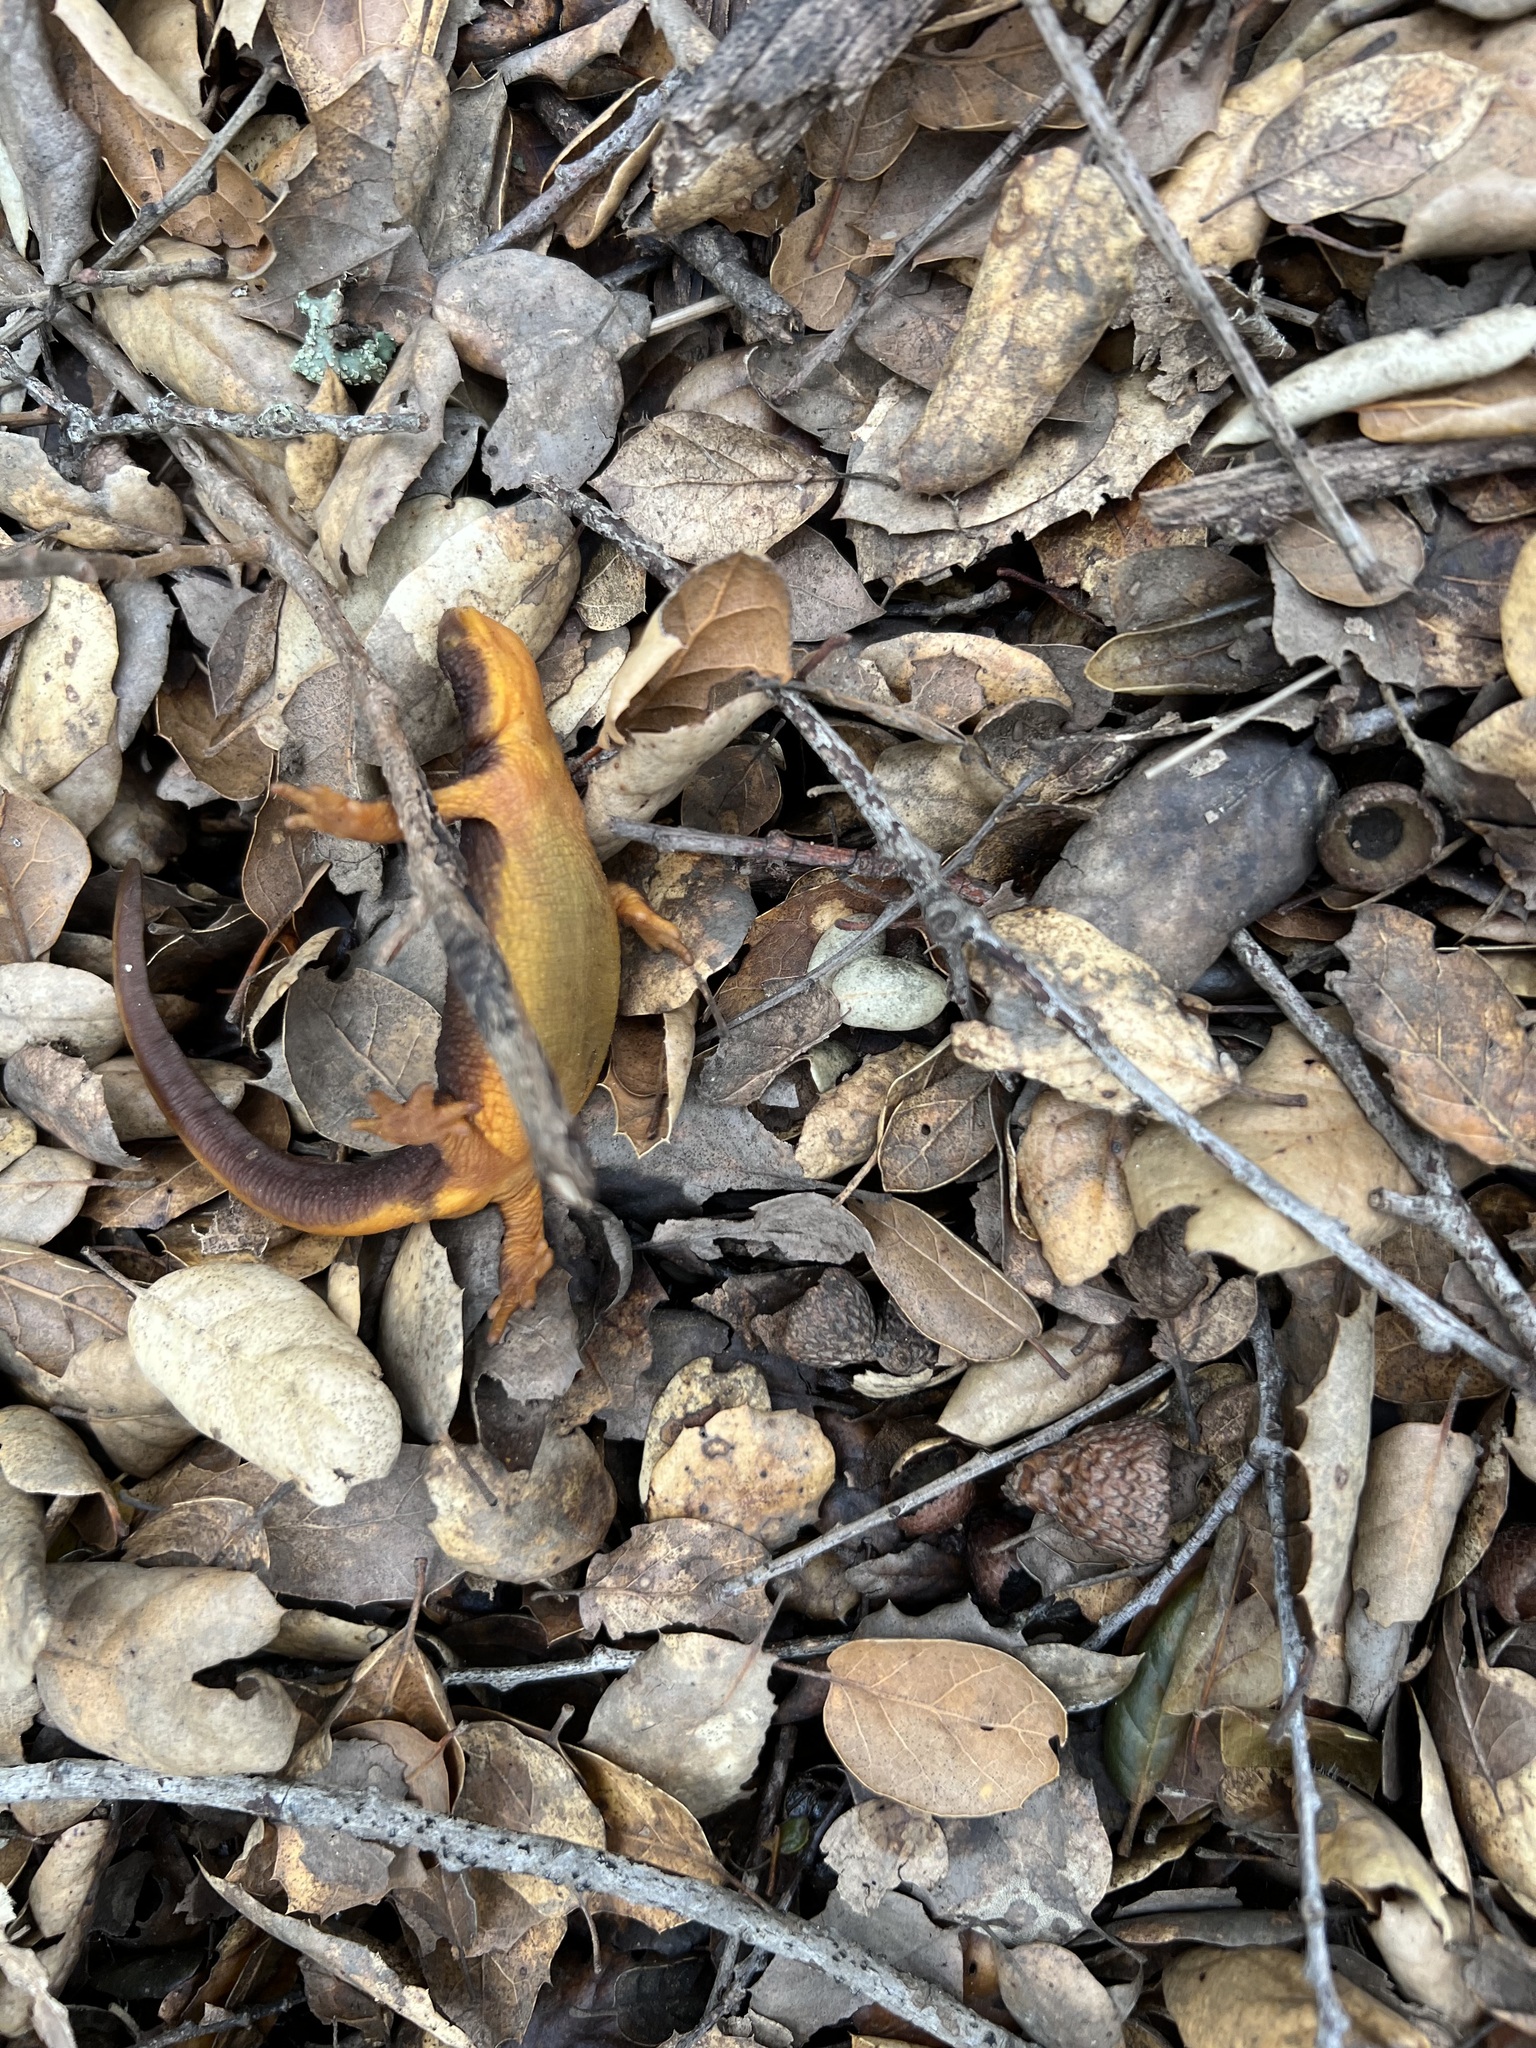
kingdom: Animalia
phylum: Chordata
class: Amphibia
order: Caudata
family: Salamandridae
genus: Taricha
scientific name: Taricha torosa
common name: California newt
